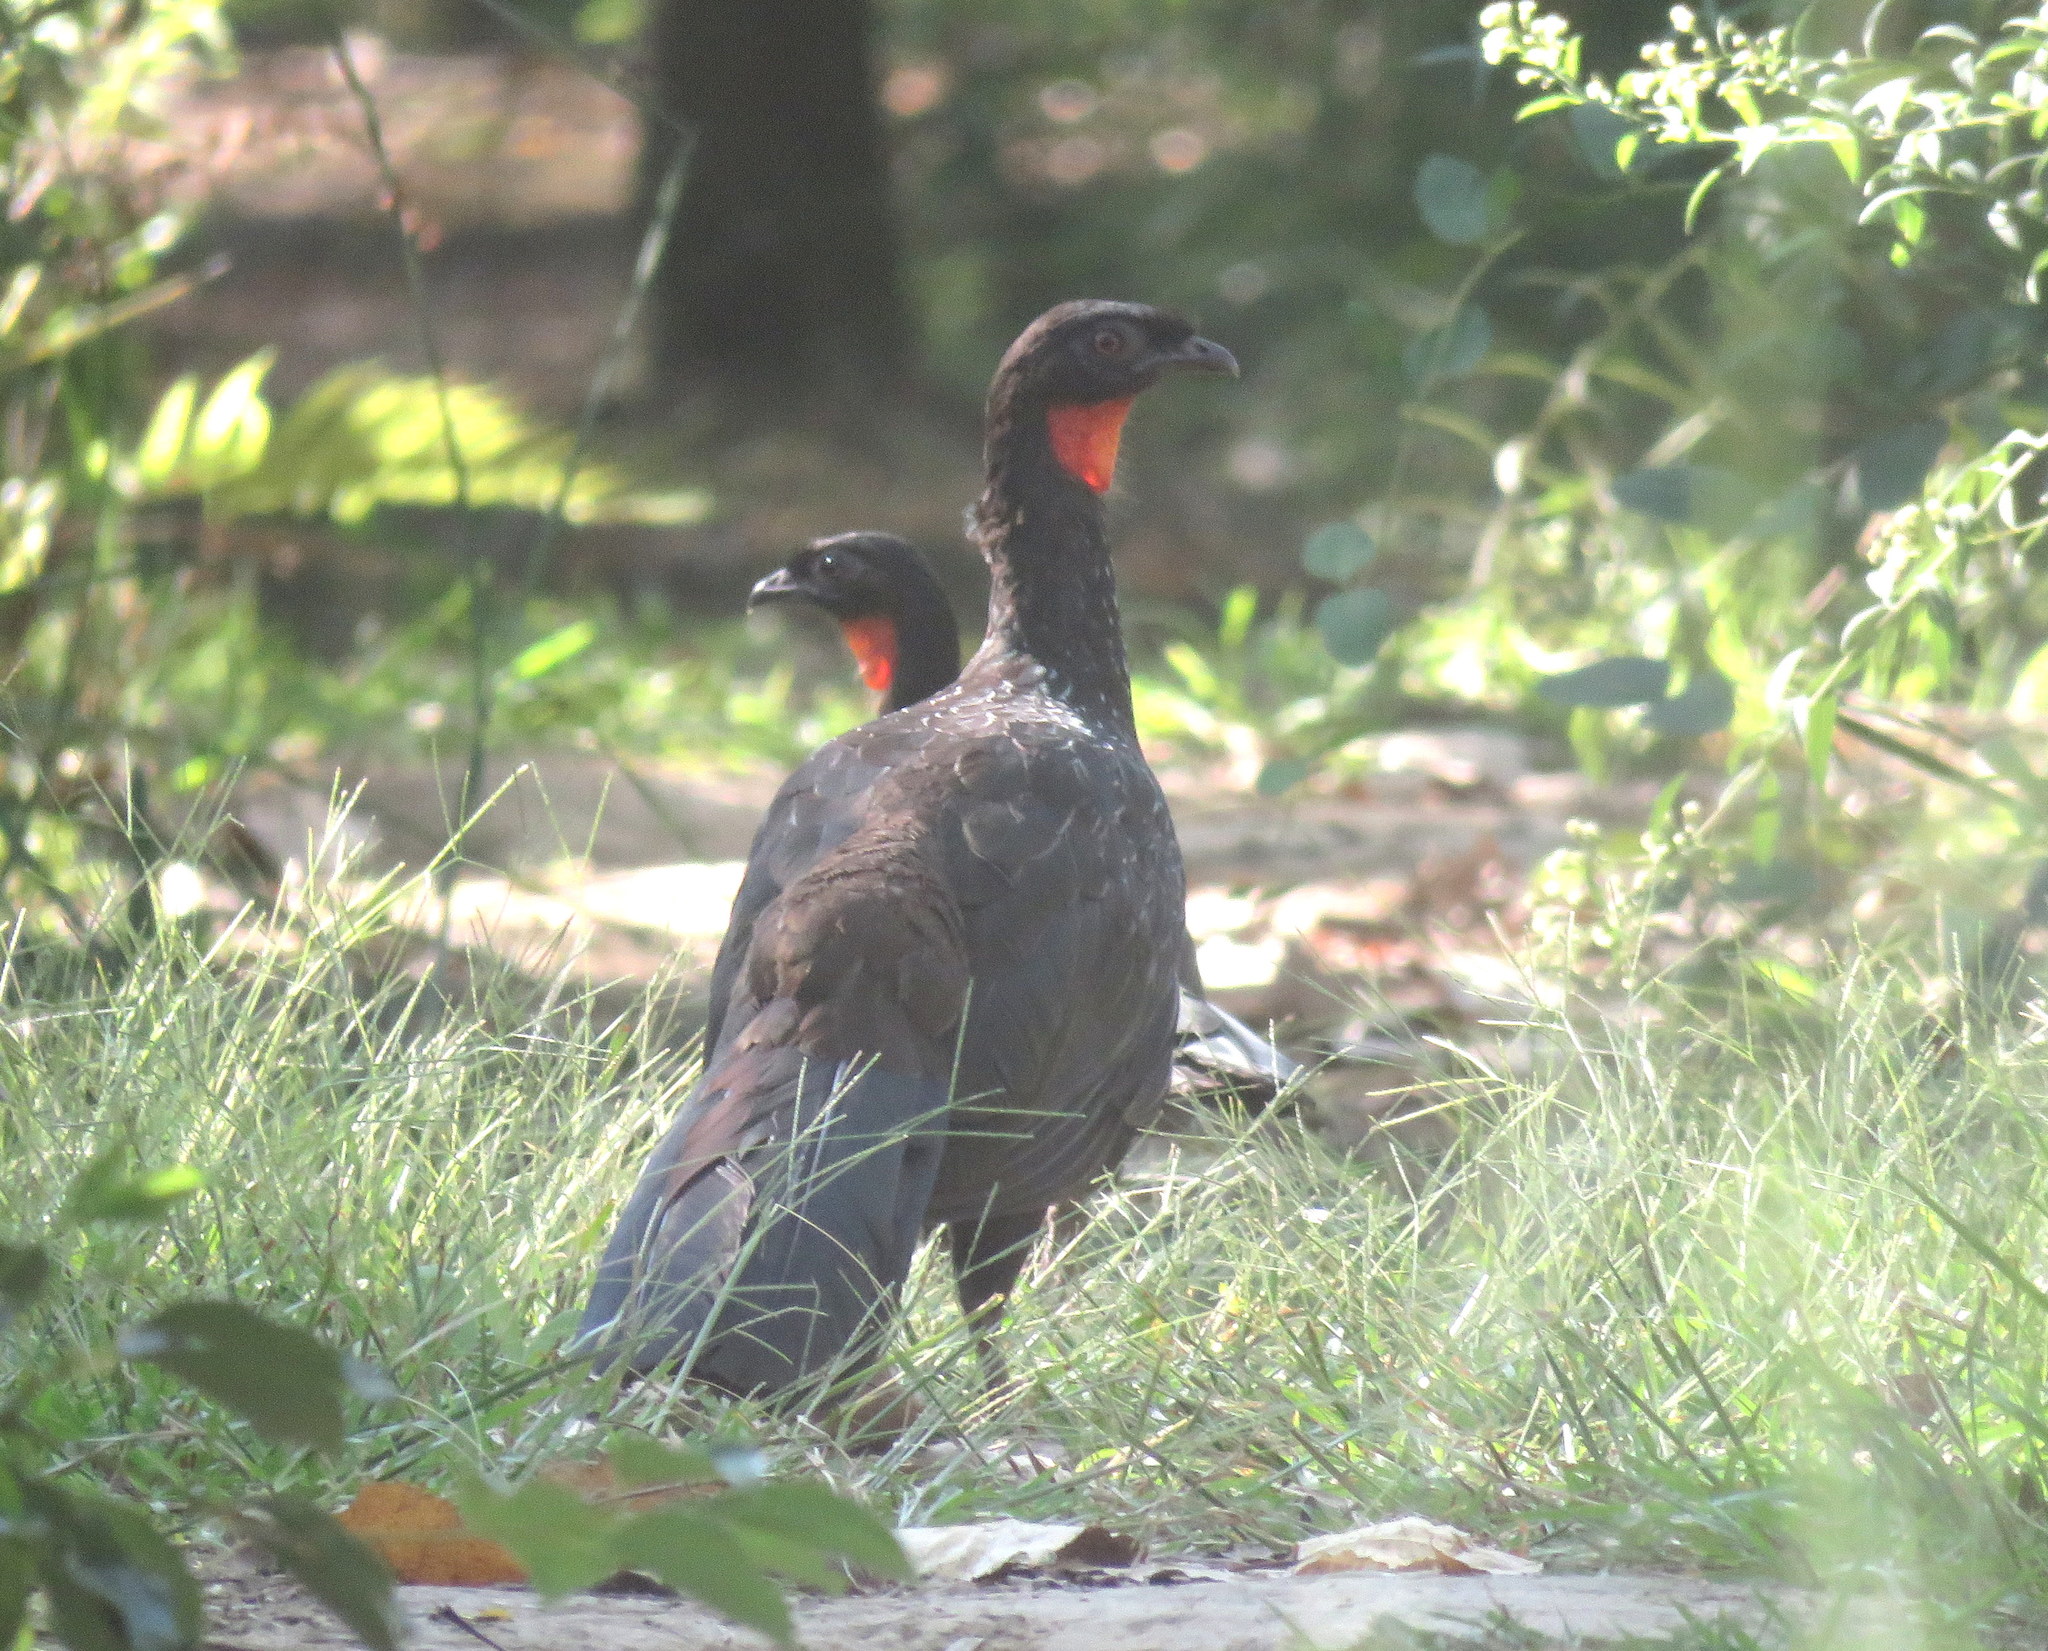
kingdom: Animalia
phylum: Chordata
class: Aves
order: Galliformes
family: Cracidae
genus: Penelope
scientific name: Penelope obscura
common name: Dusky-legged guan
